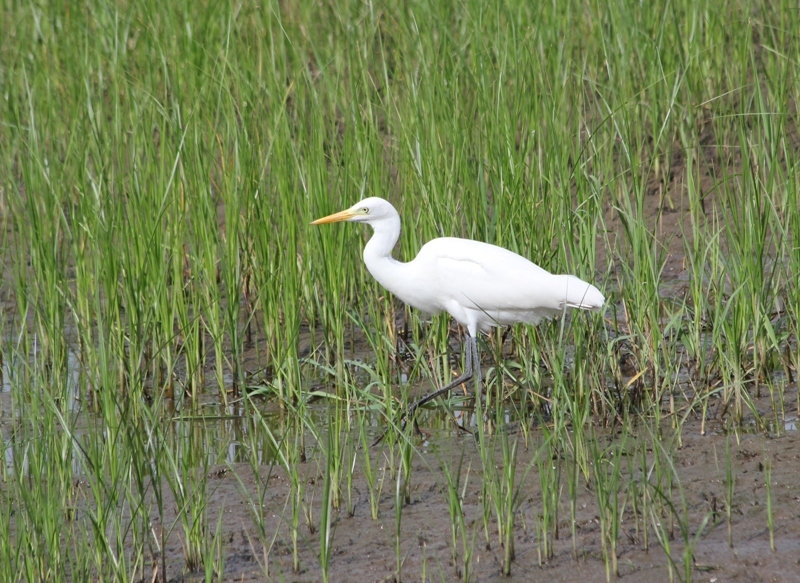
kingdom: Animalia
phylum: Chordata
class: Aves
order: Pelecaniformes
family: Ardeidae
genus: Egretta
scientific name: Egretta intermedia
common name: Intermediate egret
